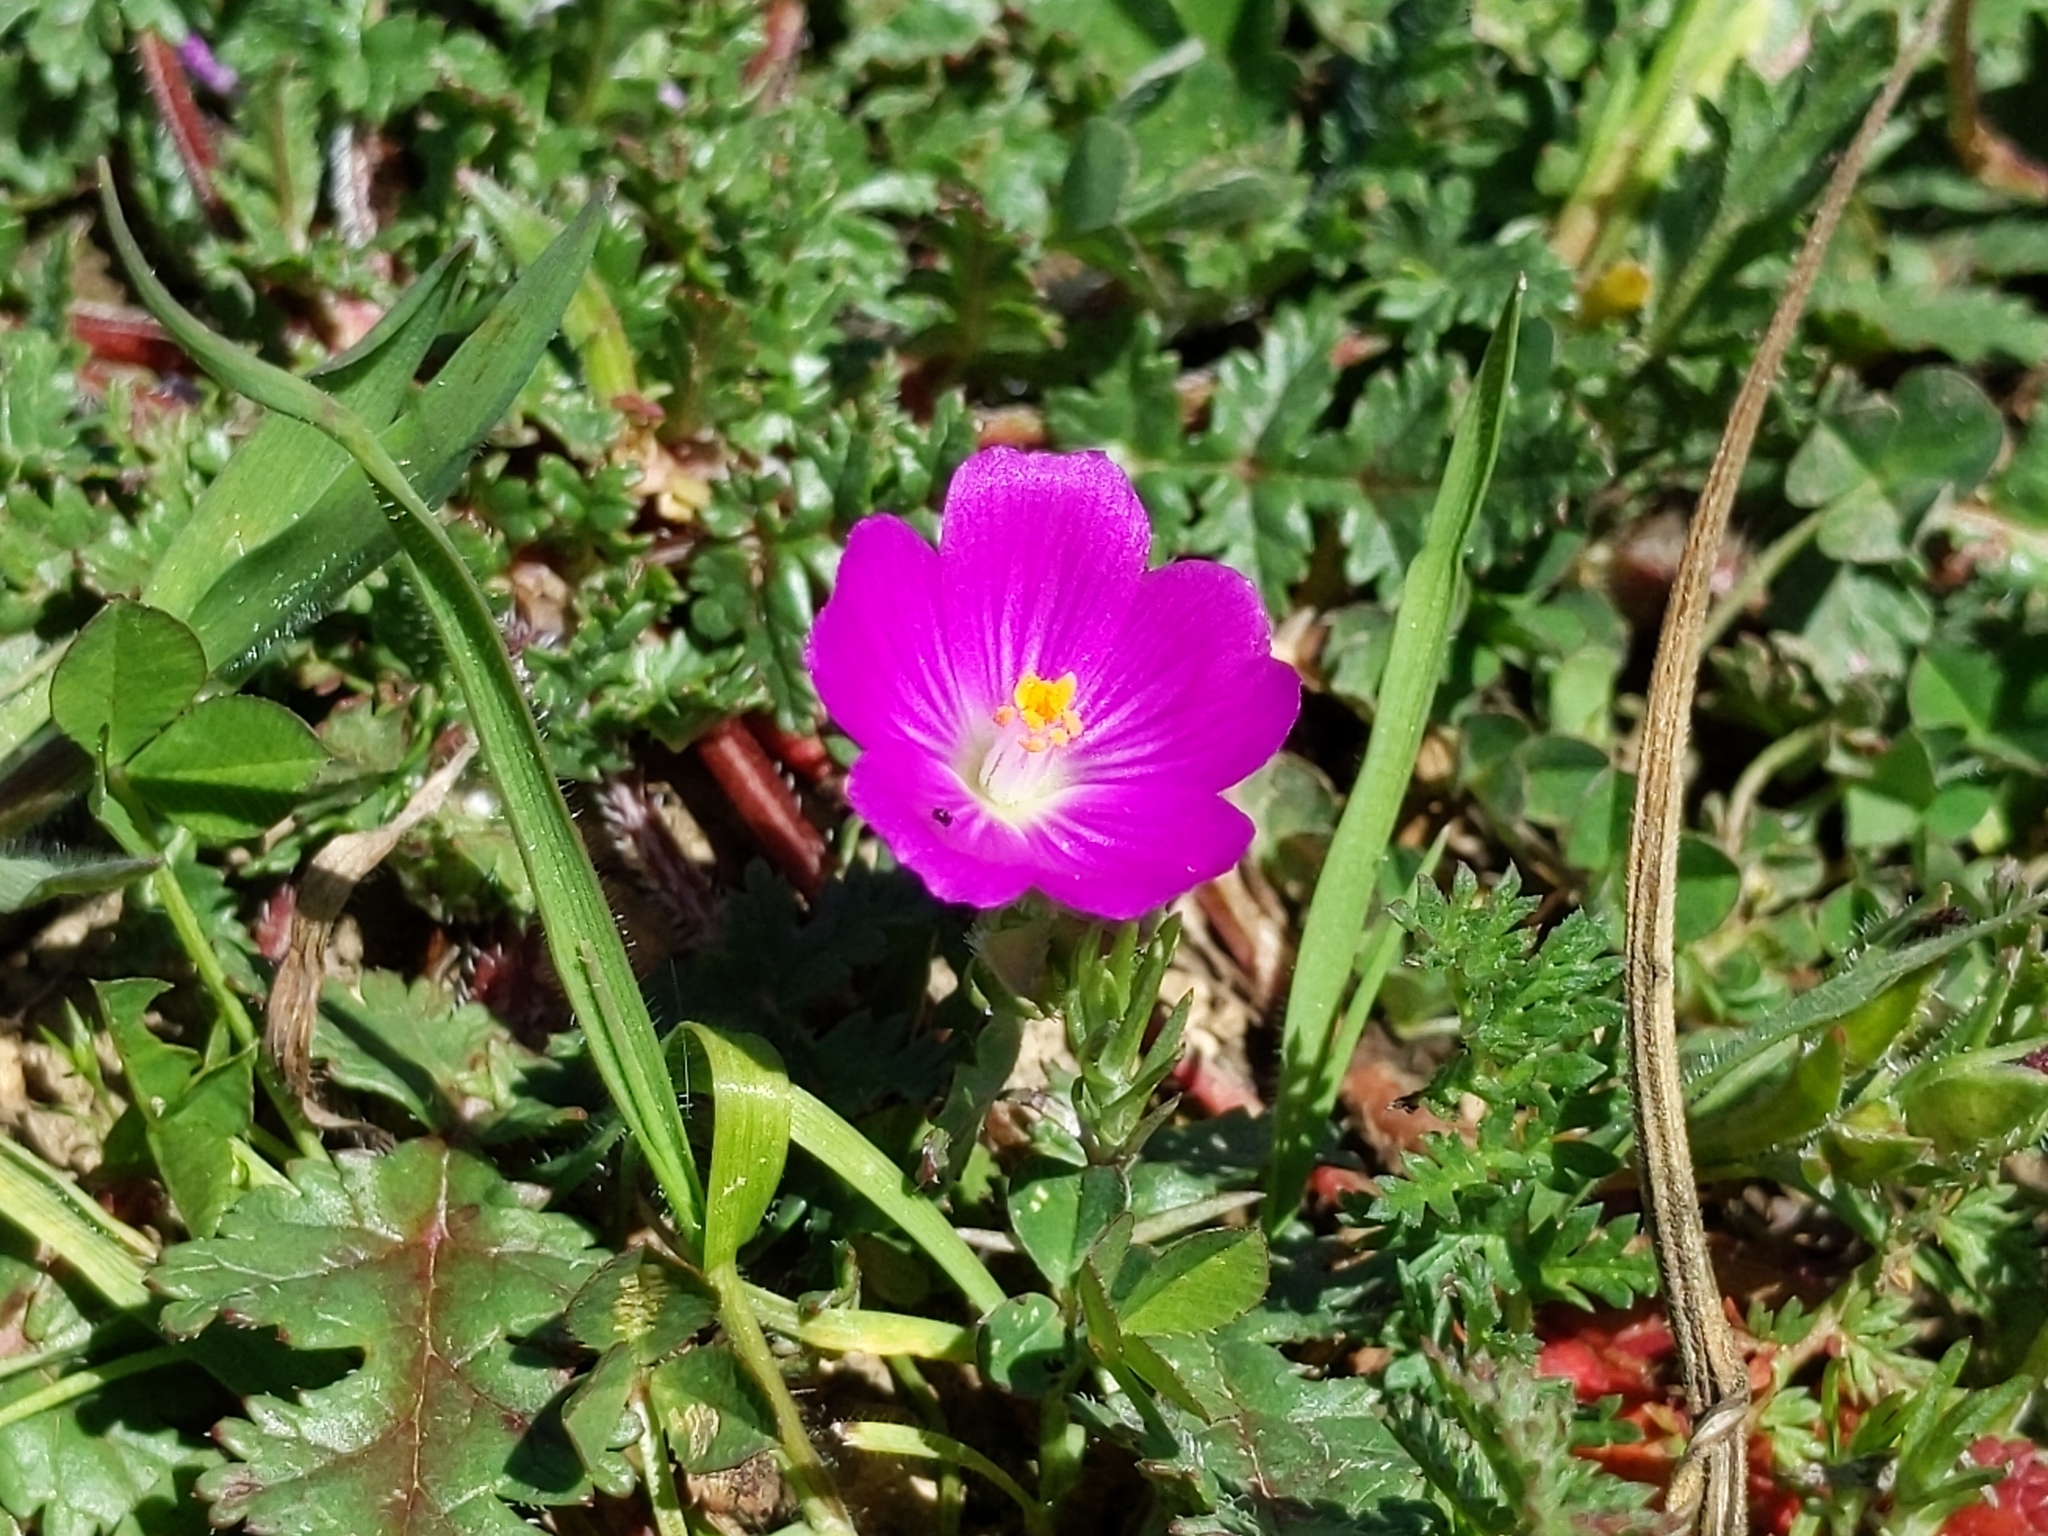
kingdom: Plantae
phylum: Tracheophyta
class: Magnoliopsida
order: Caryophyllales
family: Montiaceae
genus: Calandrinia
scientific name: Calandrinia menziesii
